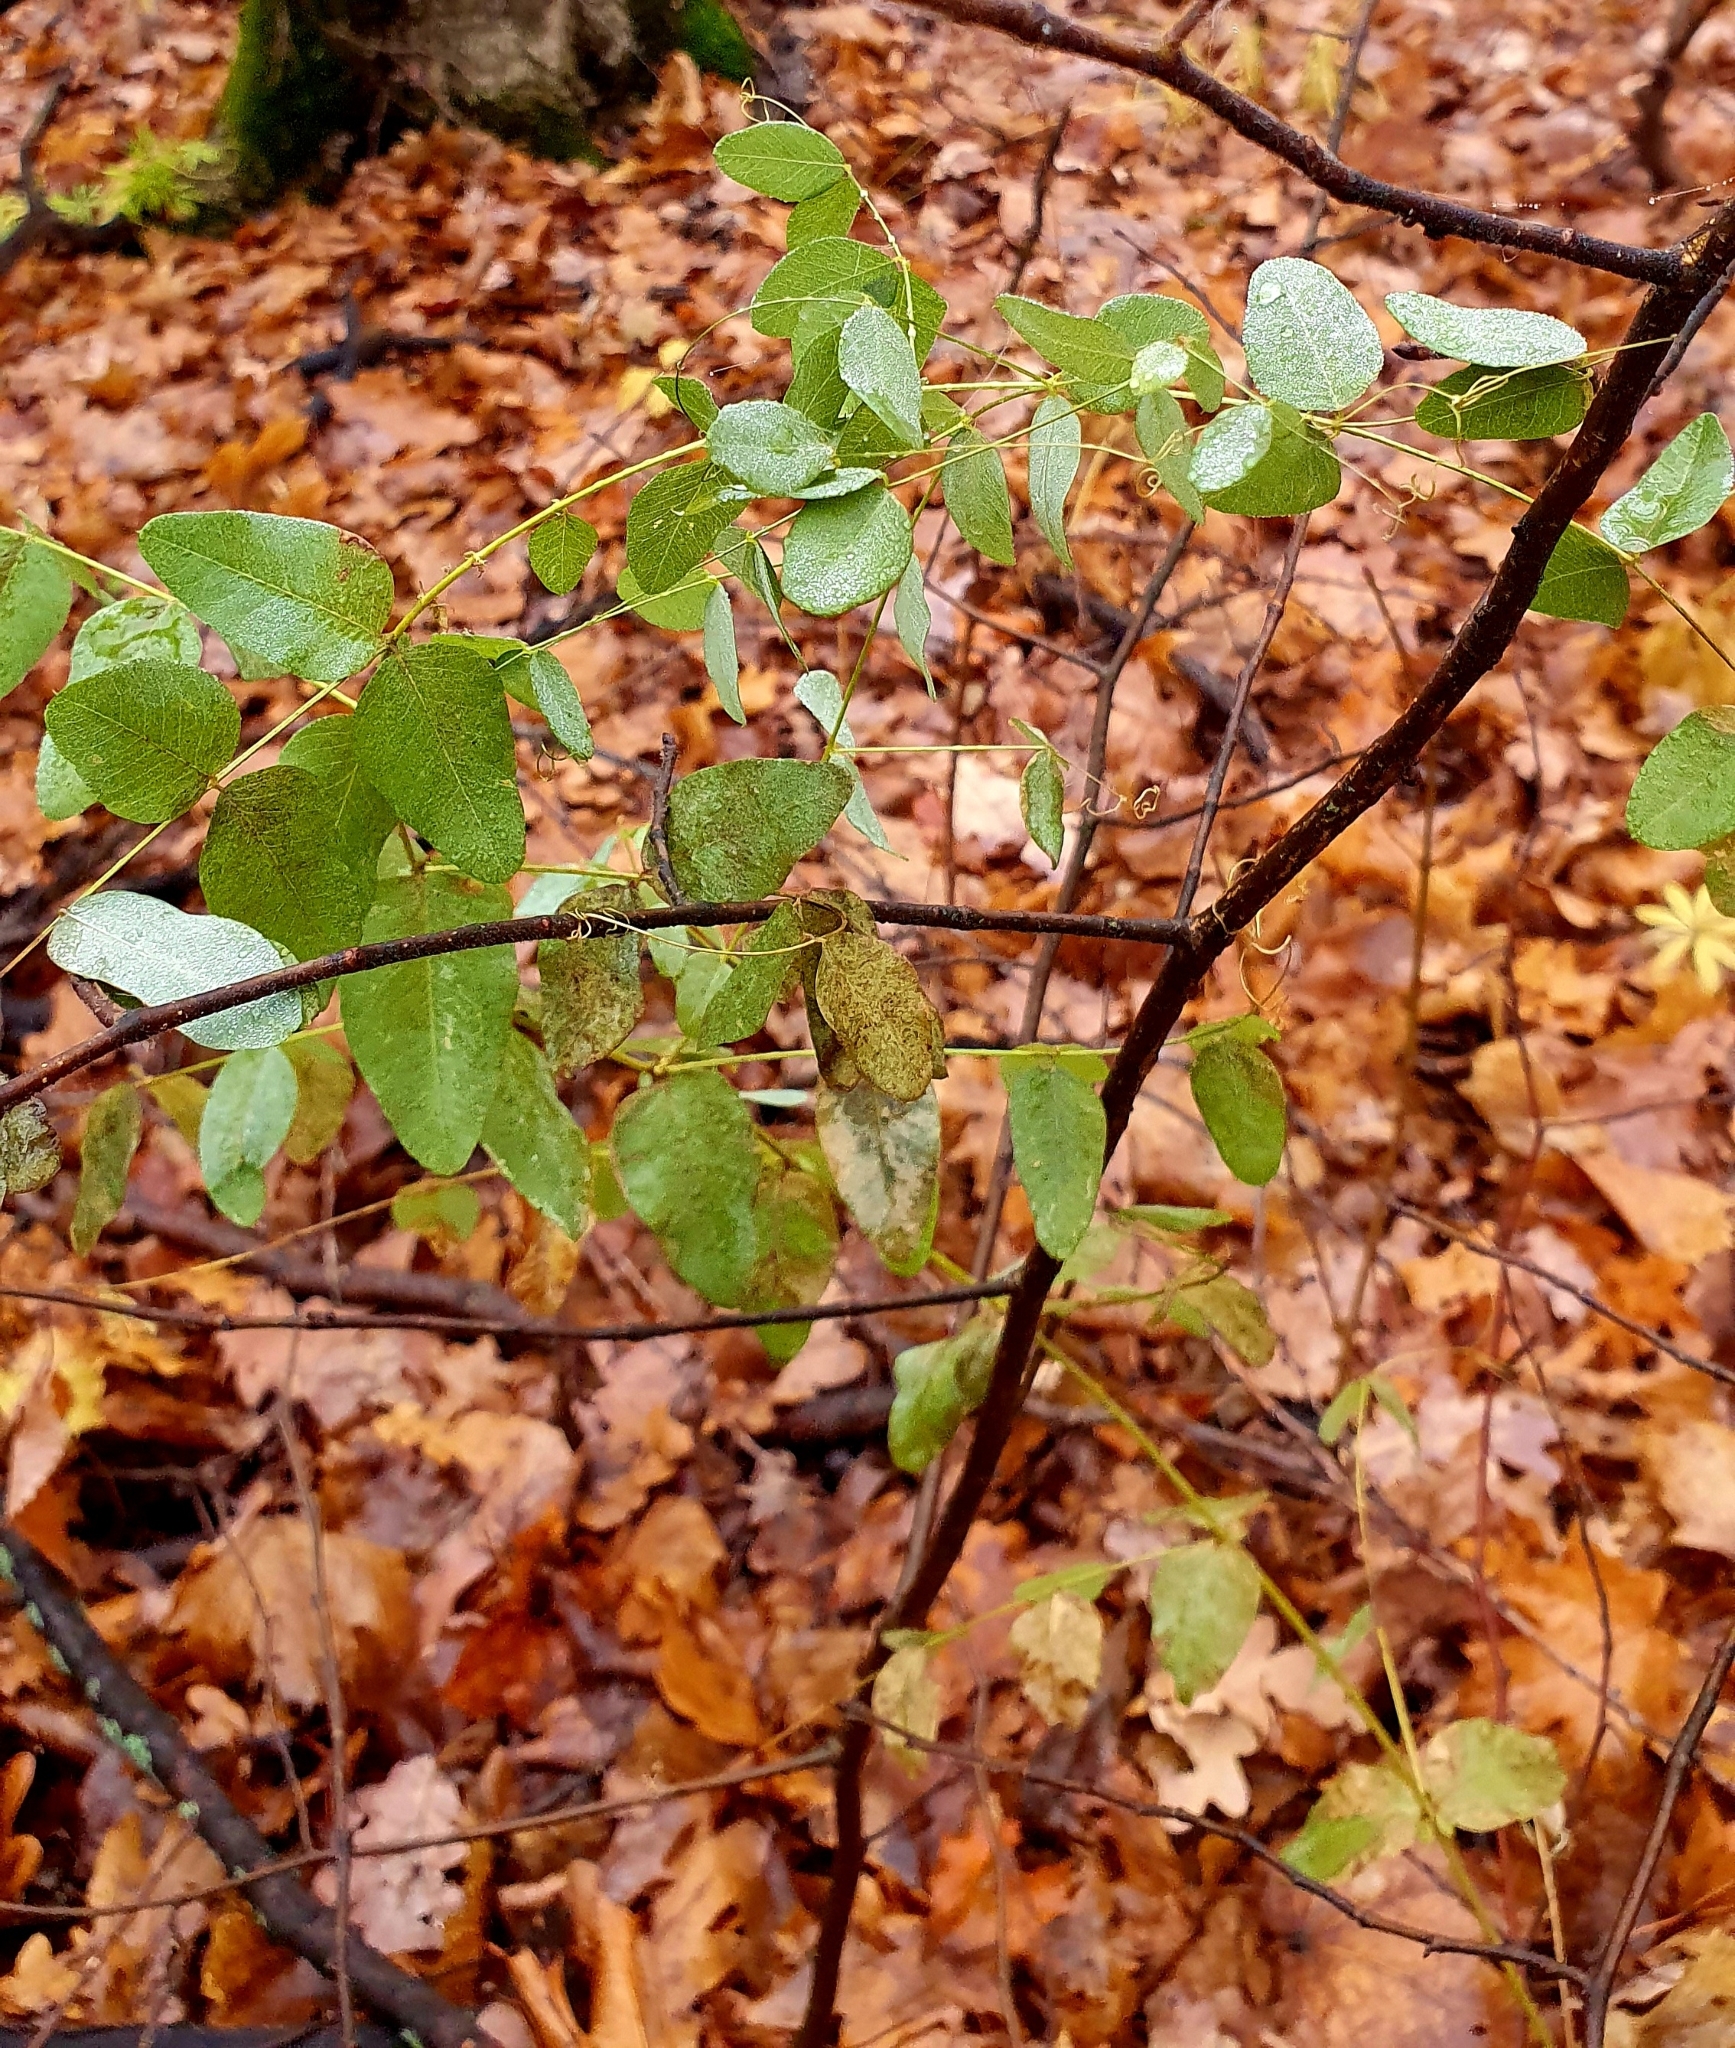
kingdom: Plantae
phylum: Tracheophyta
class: Magnoliopsida
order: Fabales
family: Fabaceae
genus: Vicia
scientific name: Vicia pisiformis
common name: Pale-flower vetch
